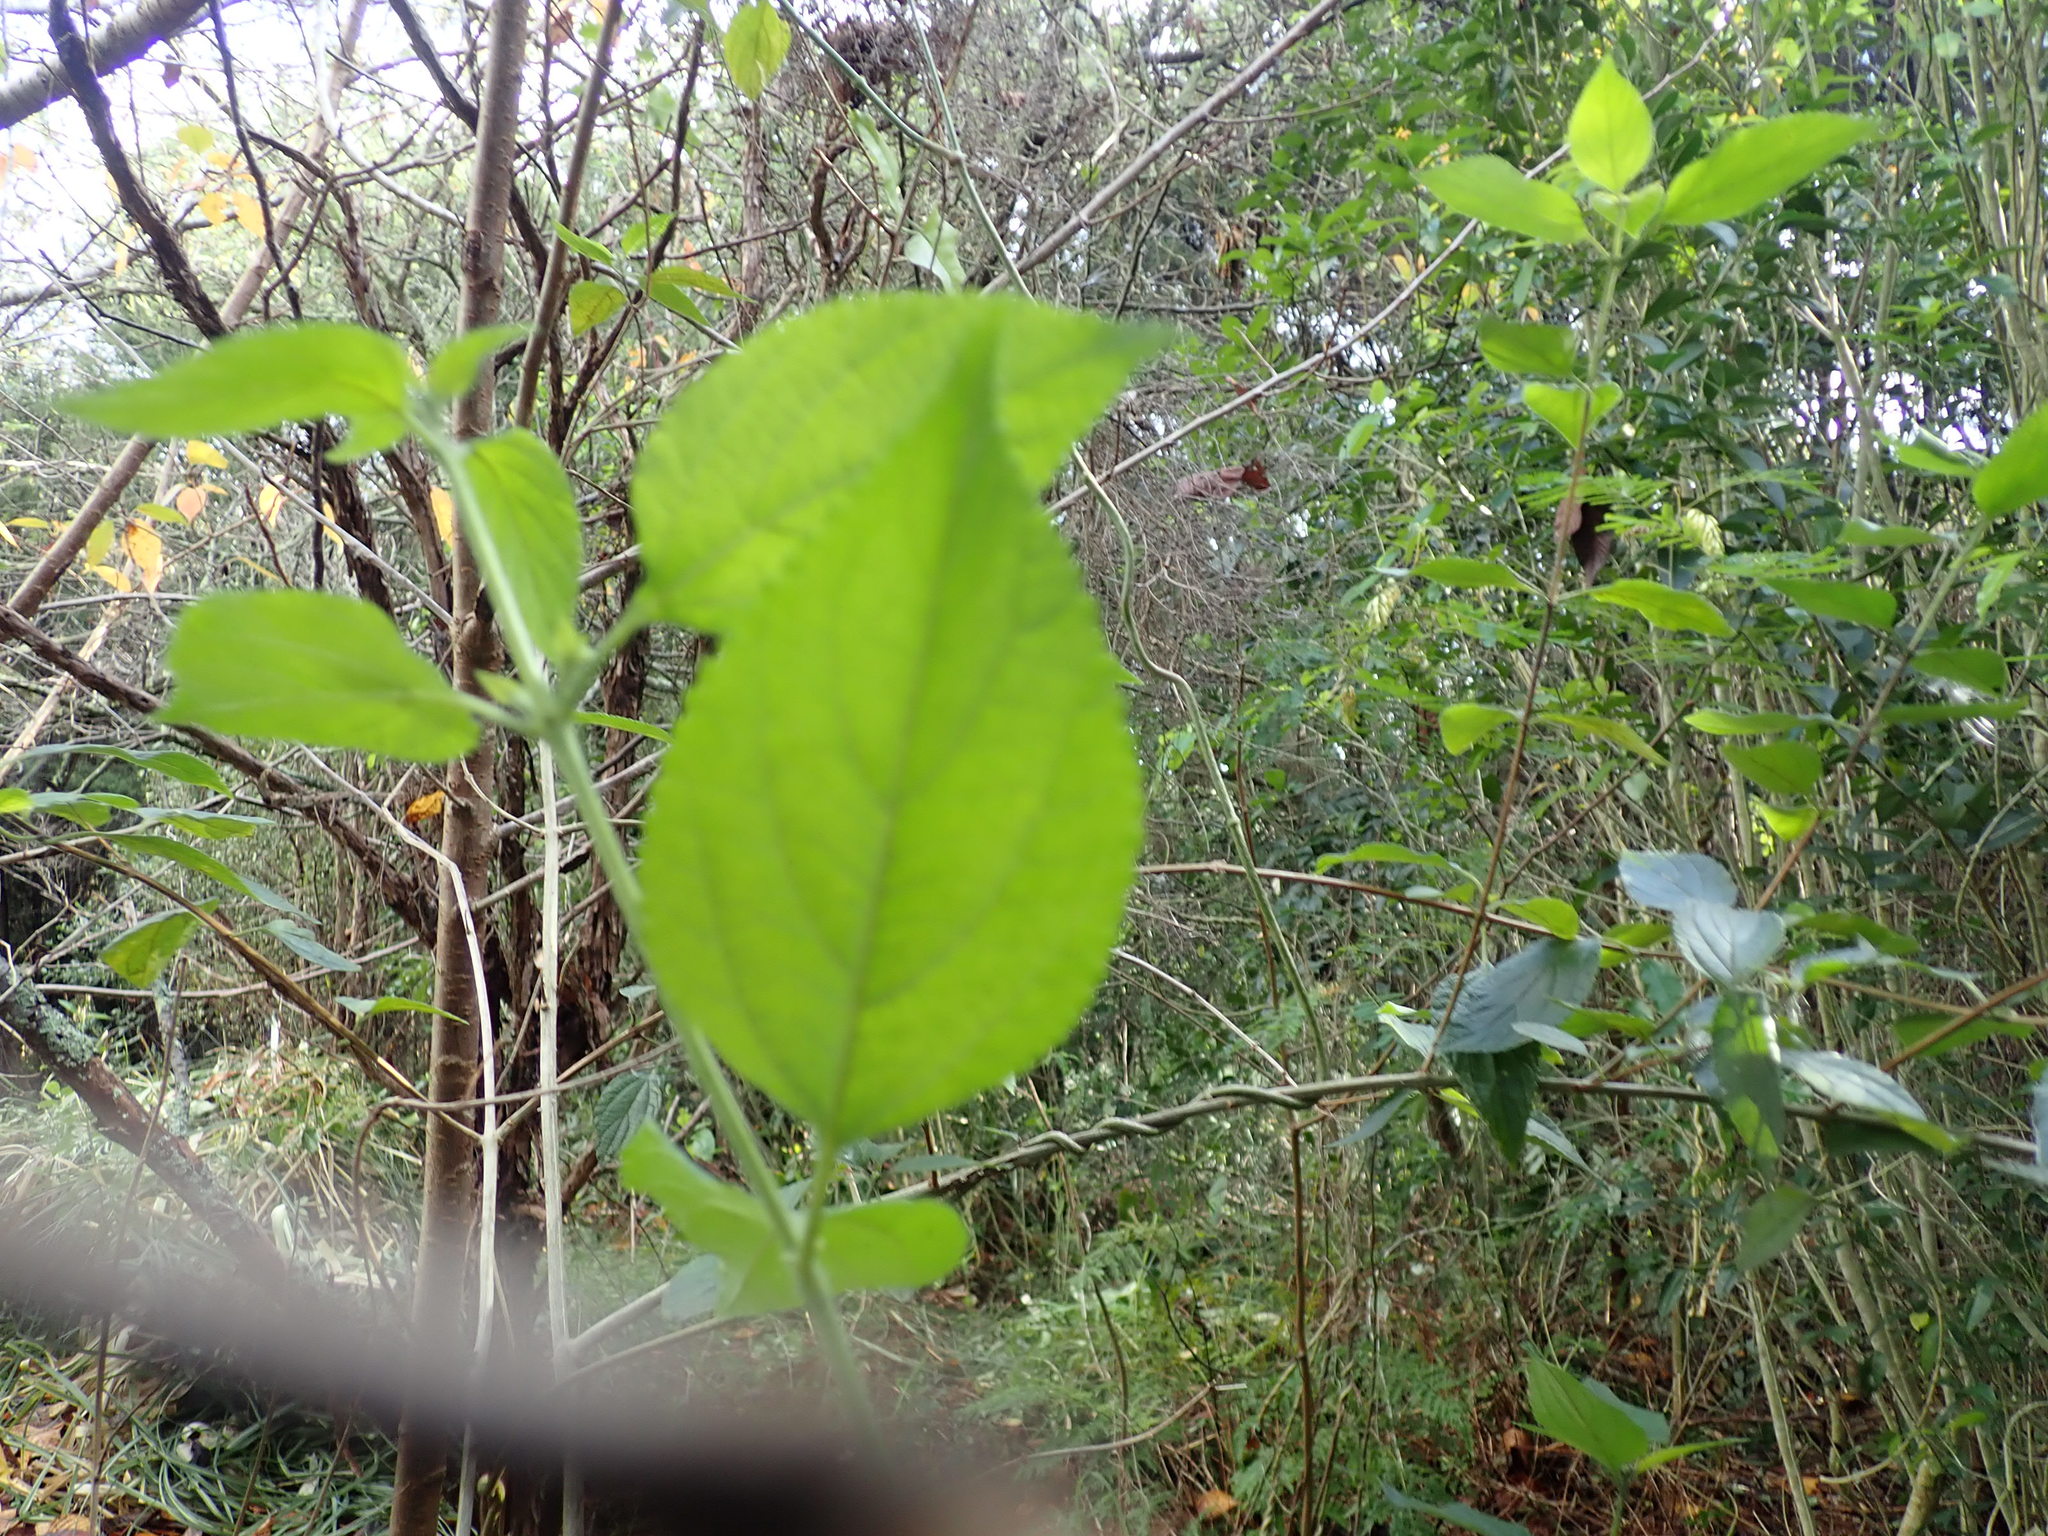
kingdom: Plantae
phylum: Tracheophyta
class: Magnoliopsida
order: Lamiales
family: Verbenaceae
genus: Lantana
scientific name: Lantana camara
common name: Lantana
